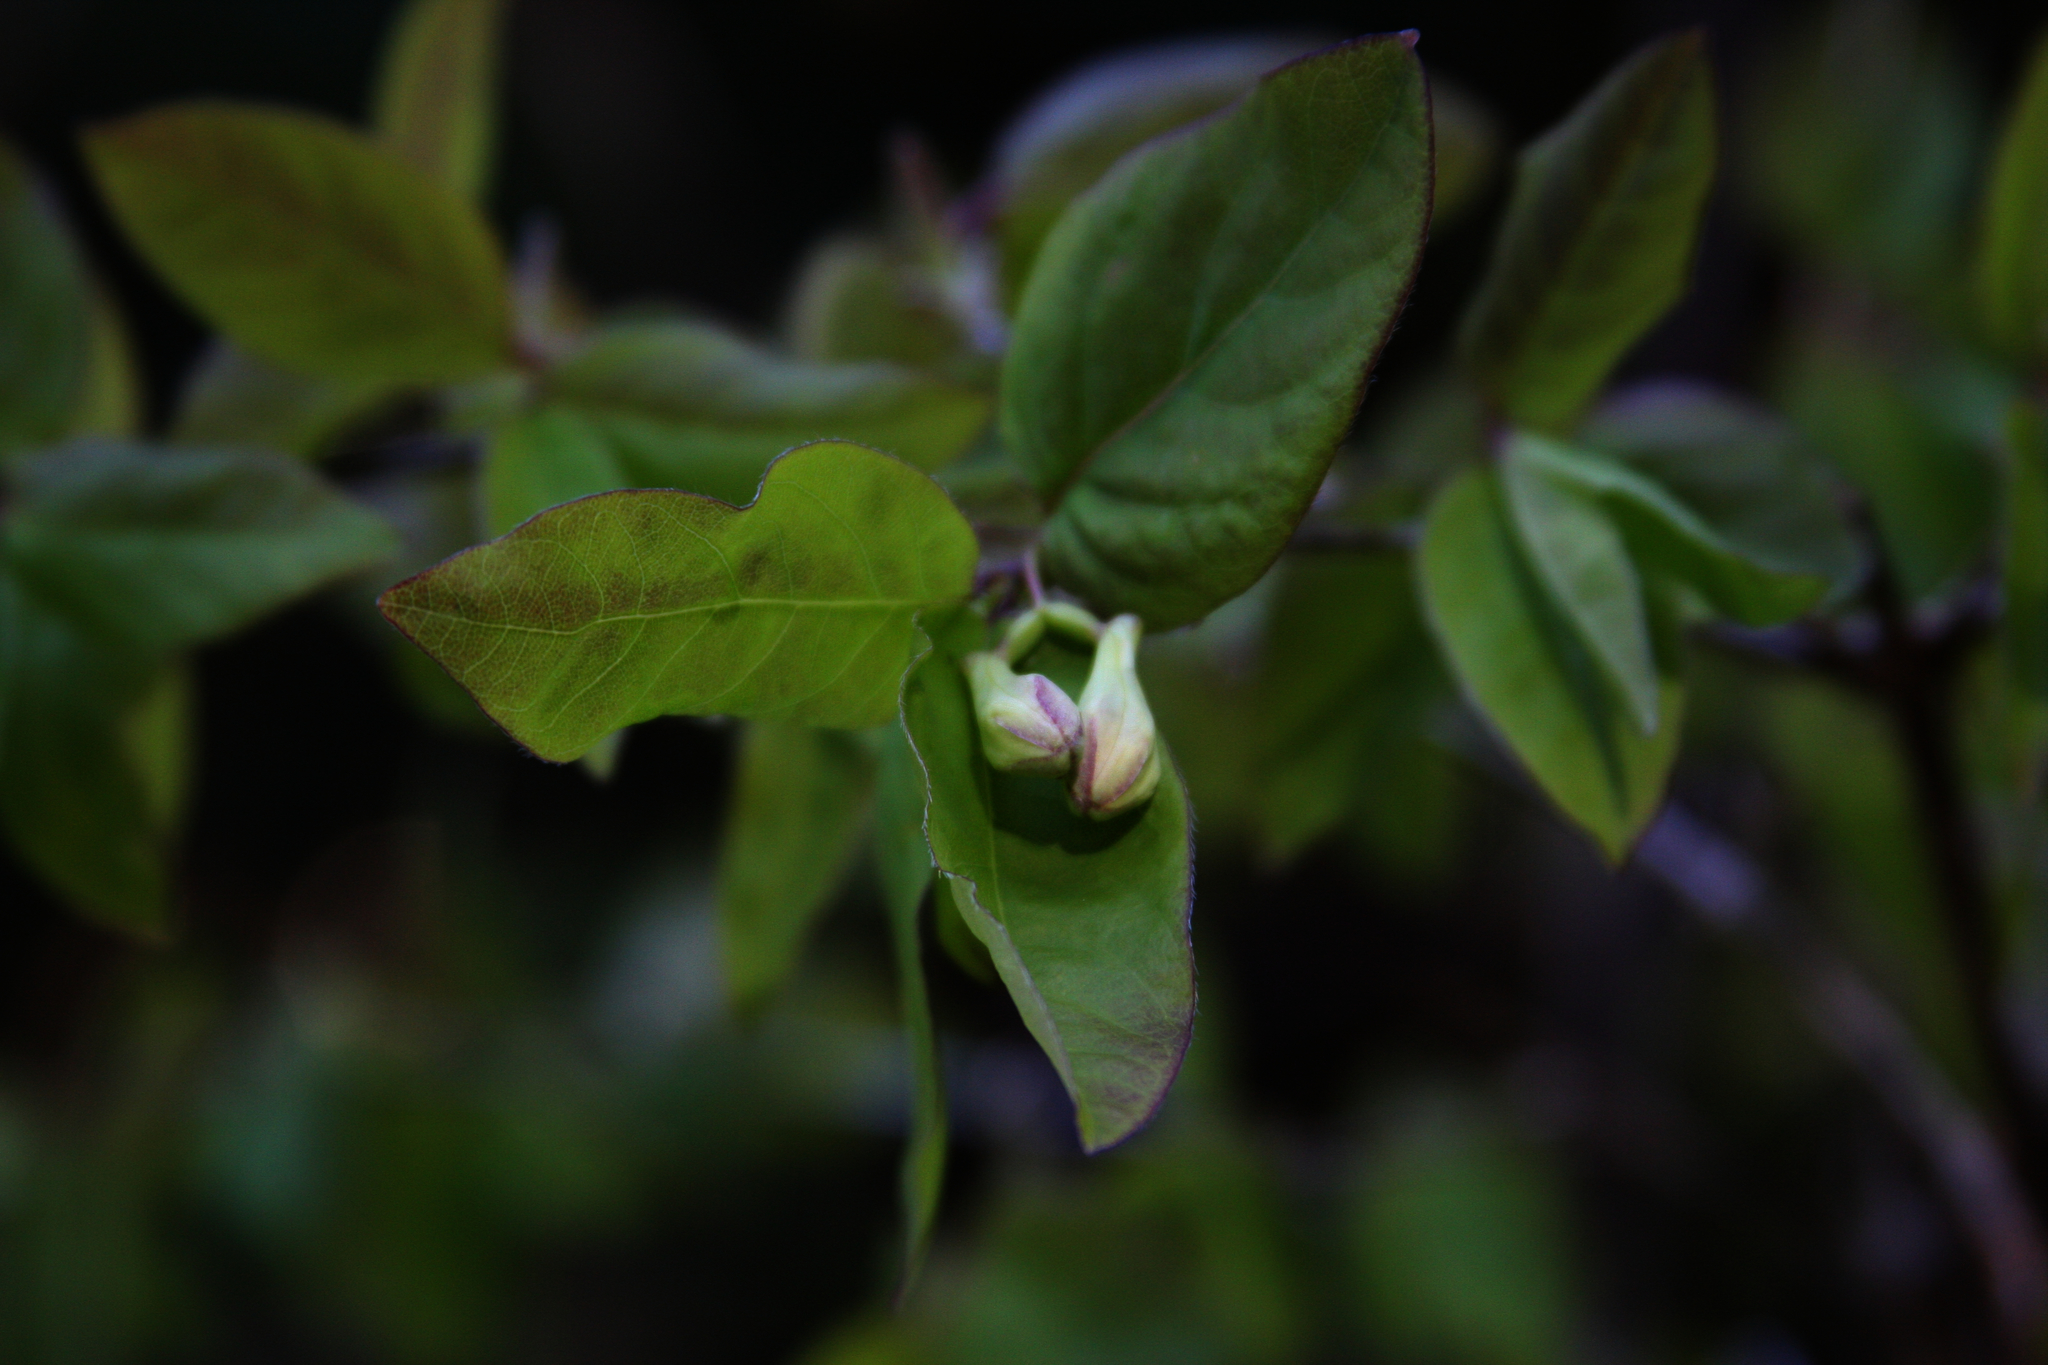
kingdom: Plantae
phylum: Tracheophyta
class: Magnoliopsida
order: Dipsacales
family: Caprifoliaceae
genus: Lonicera
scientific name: Lonicera canadensis
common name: American fly-honeysuckle
